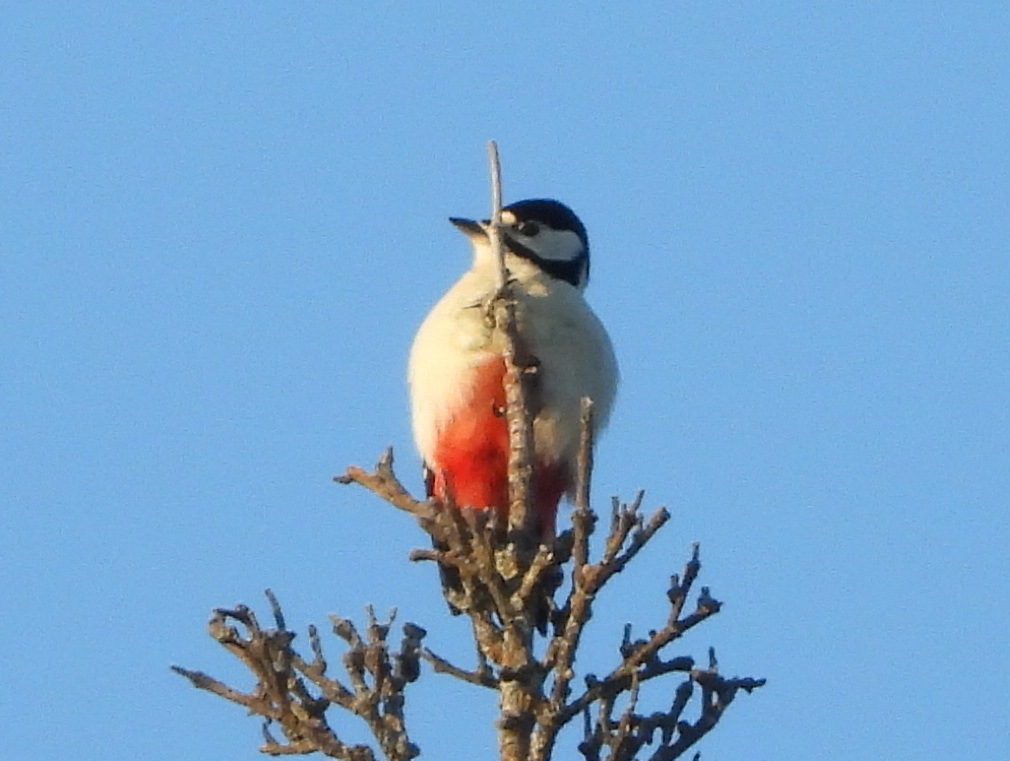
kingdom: Animalia
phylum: Chordata
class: Aves
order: Piciformes
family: Picidae
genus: Dendrocopos
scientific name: Dendrocopos major
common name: Great spotted woodpecker
